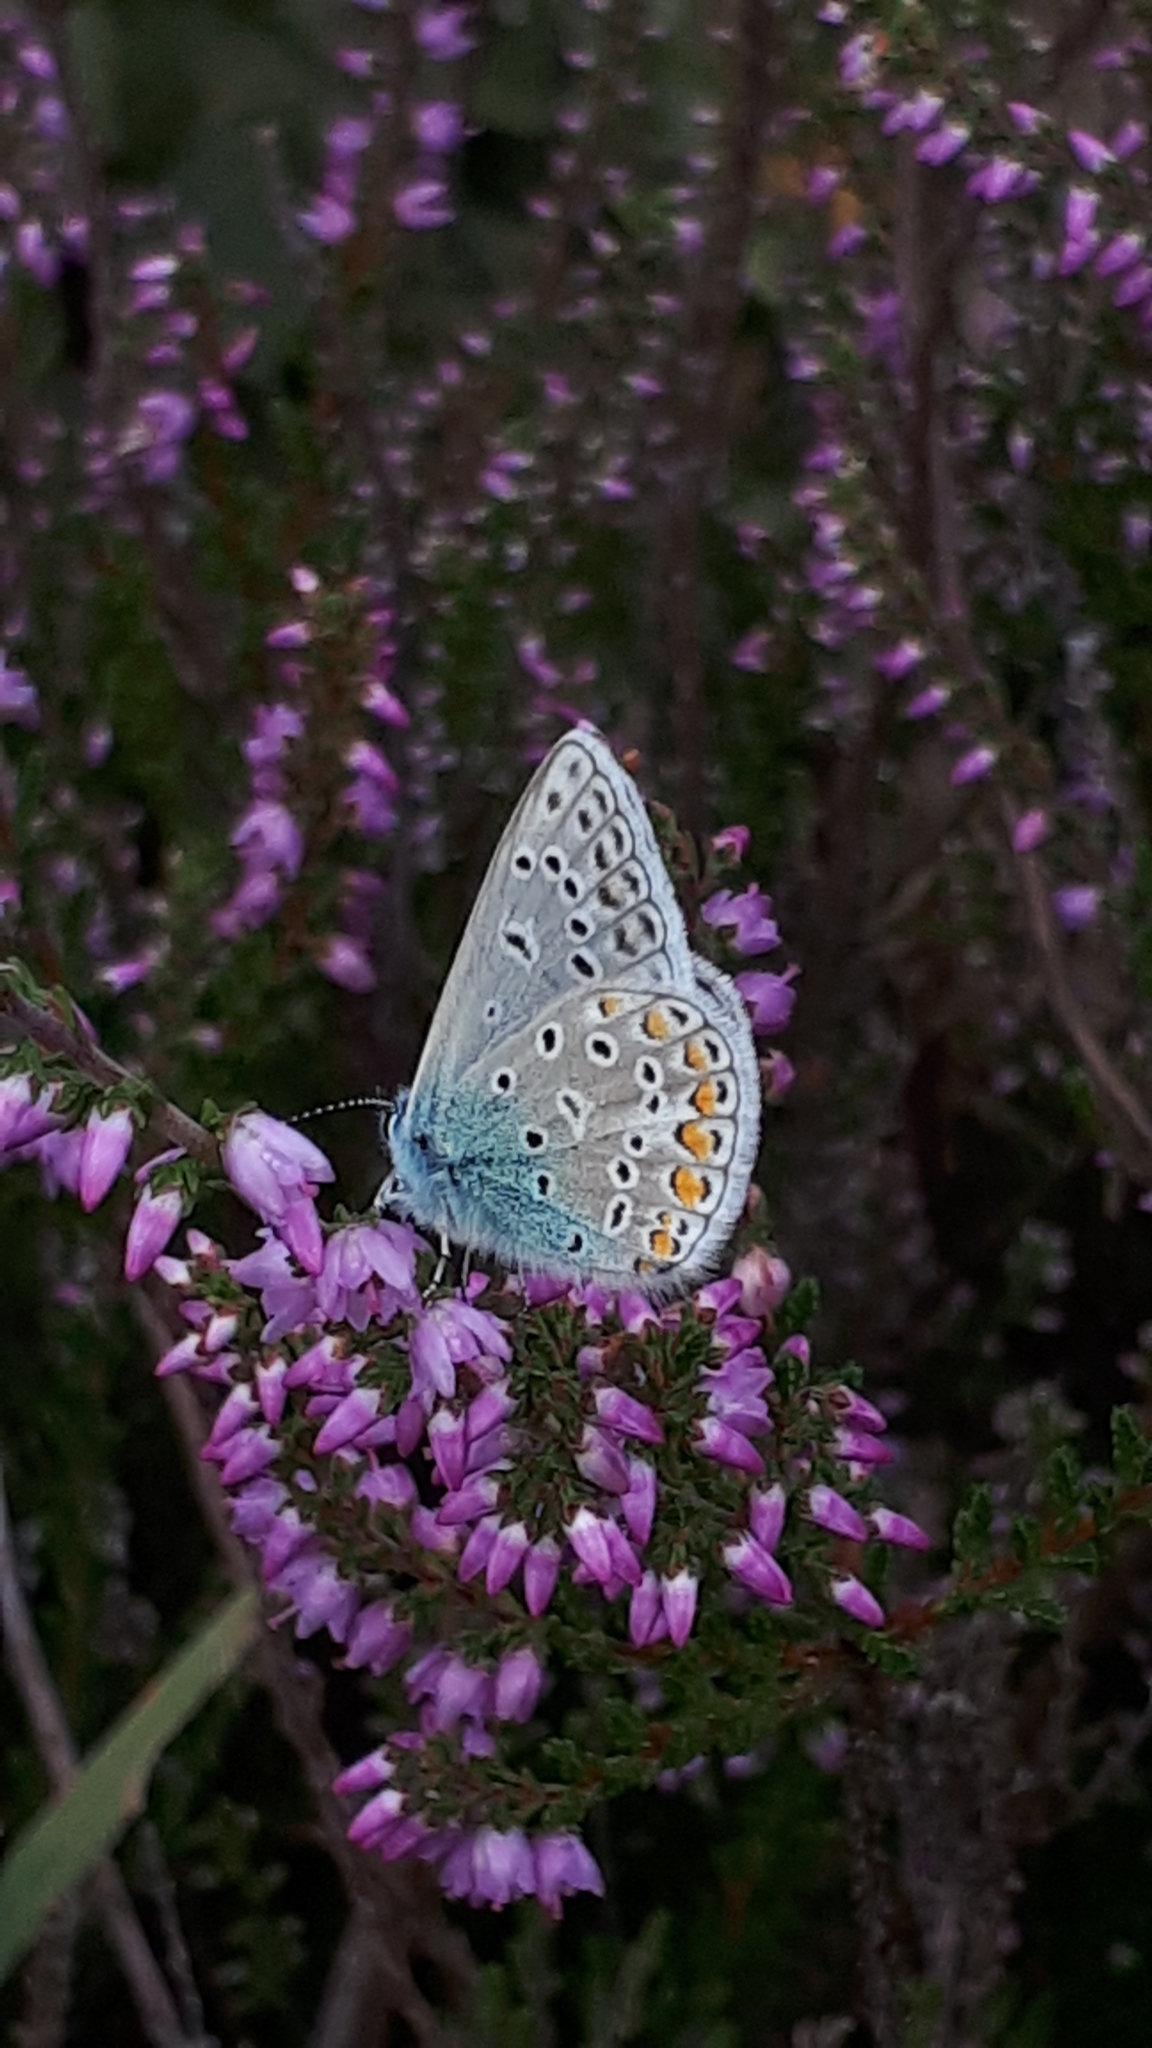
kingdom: Animalia
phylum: Arthropoda
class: Insecta
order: Lepidoptera
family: Lycaenidae
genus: Polyommatus
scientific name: Polyommatus icarus
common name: Common blue
